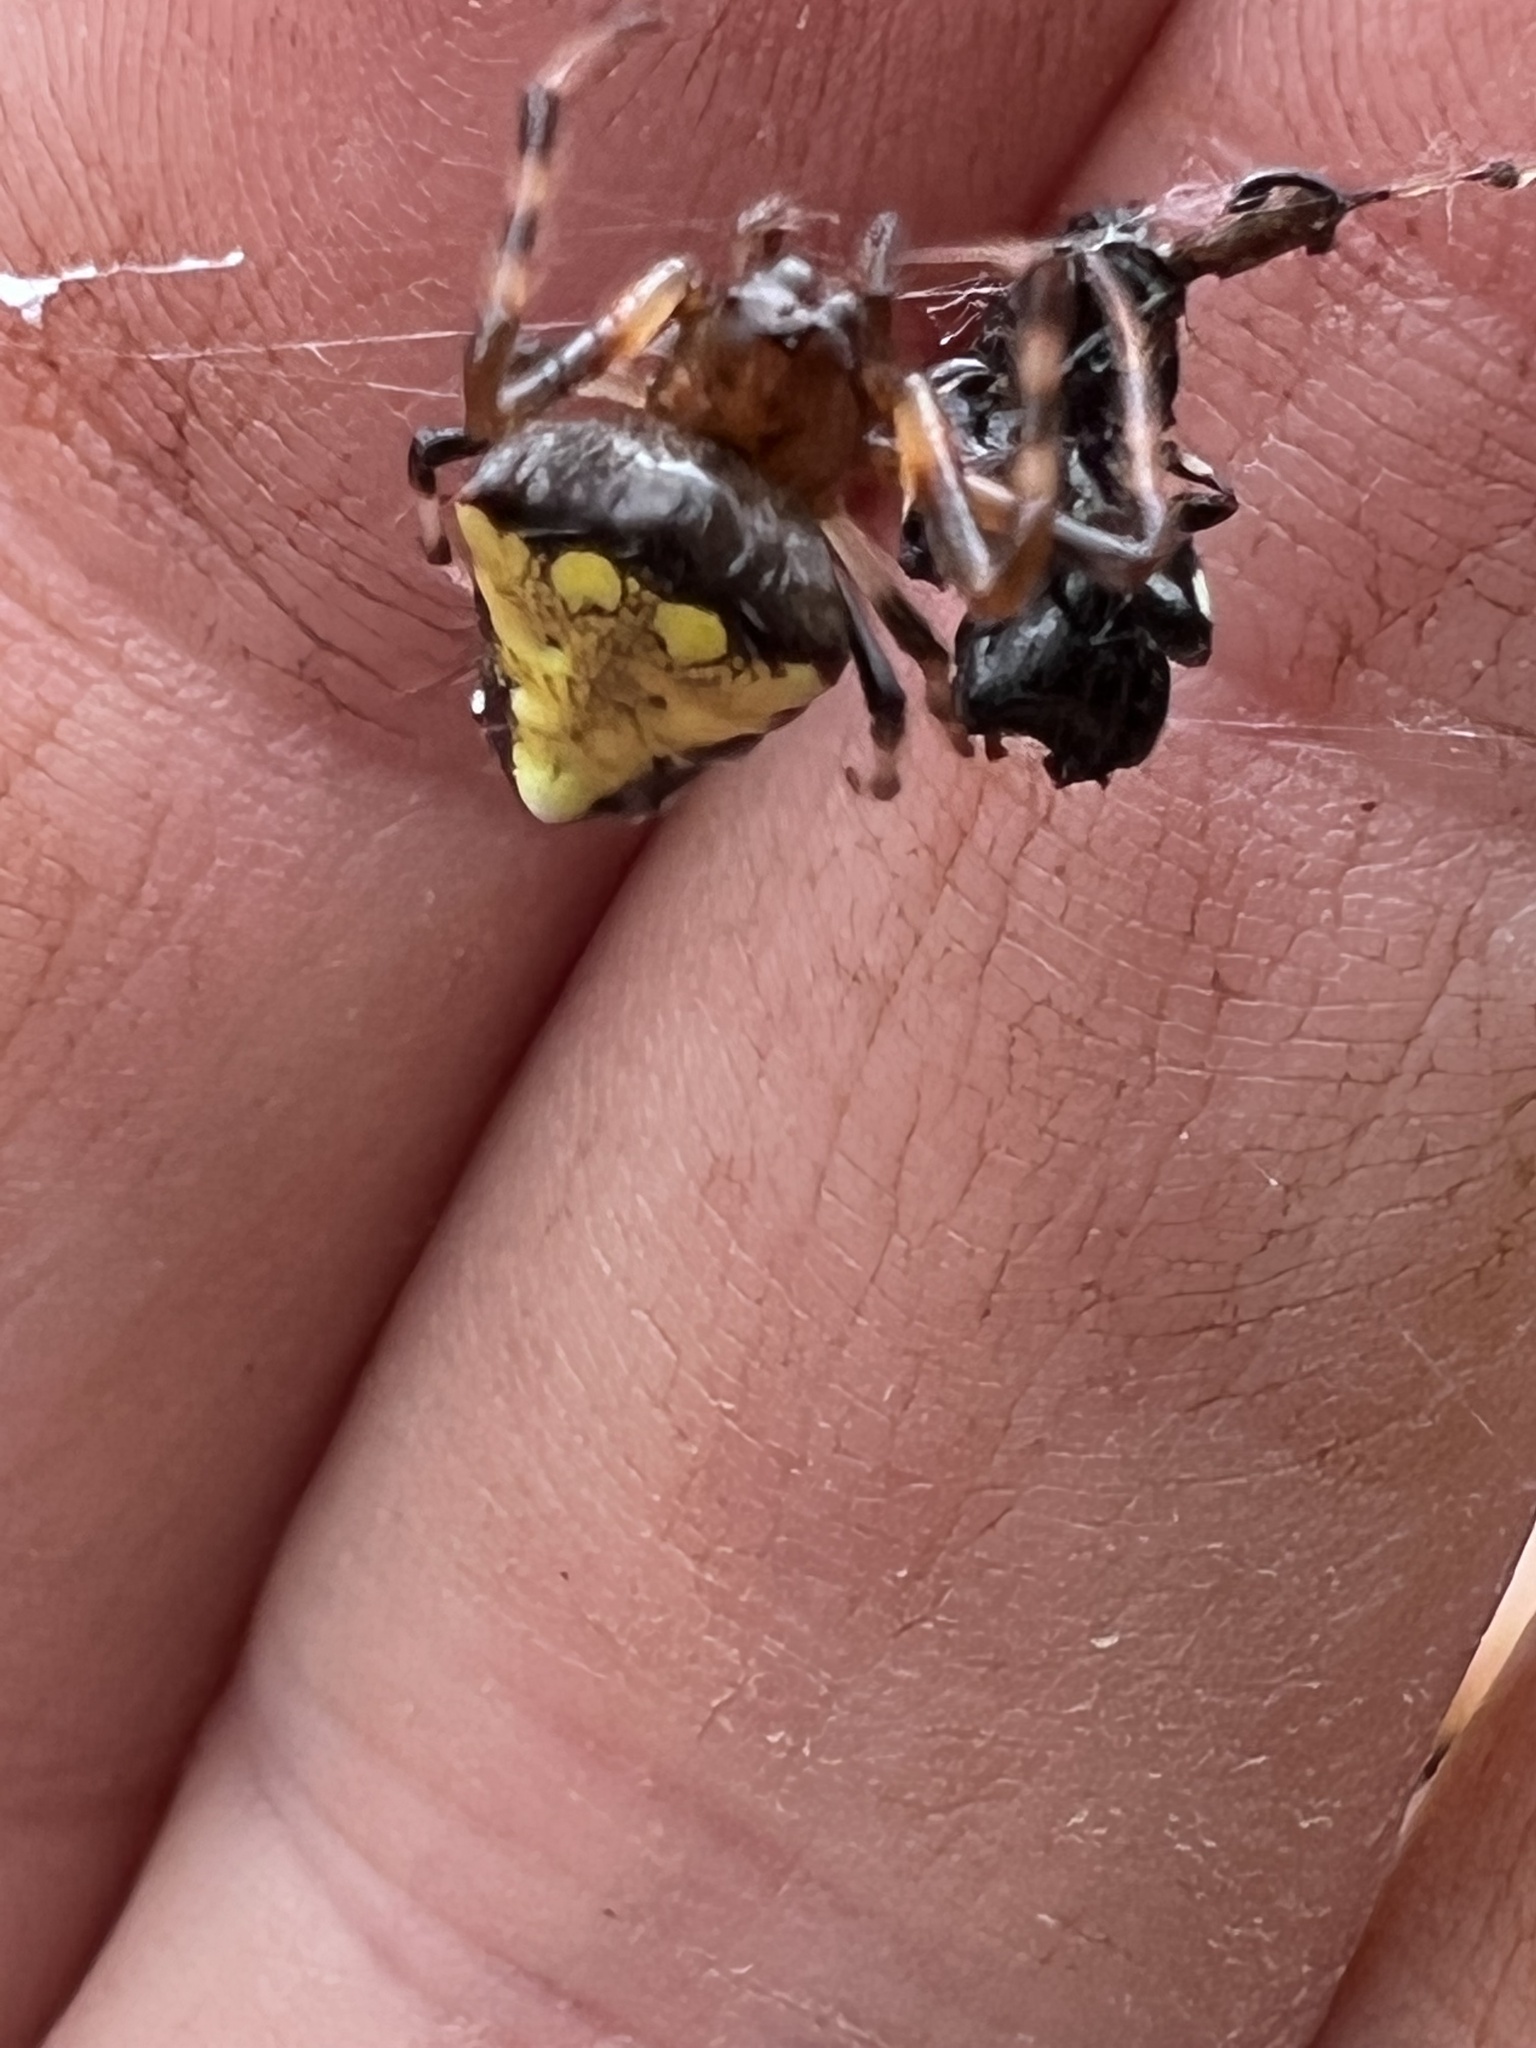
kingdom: Animalia
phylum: Arthropoda
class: Arachnida
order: Araneae
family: Araneidae
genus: Verrucosa
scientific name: Verrucosa arenata
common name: Orb weavers
